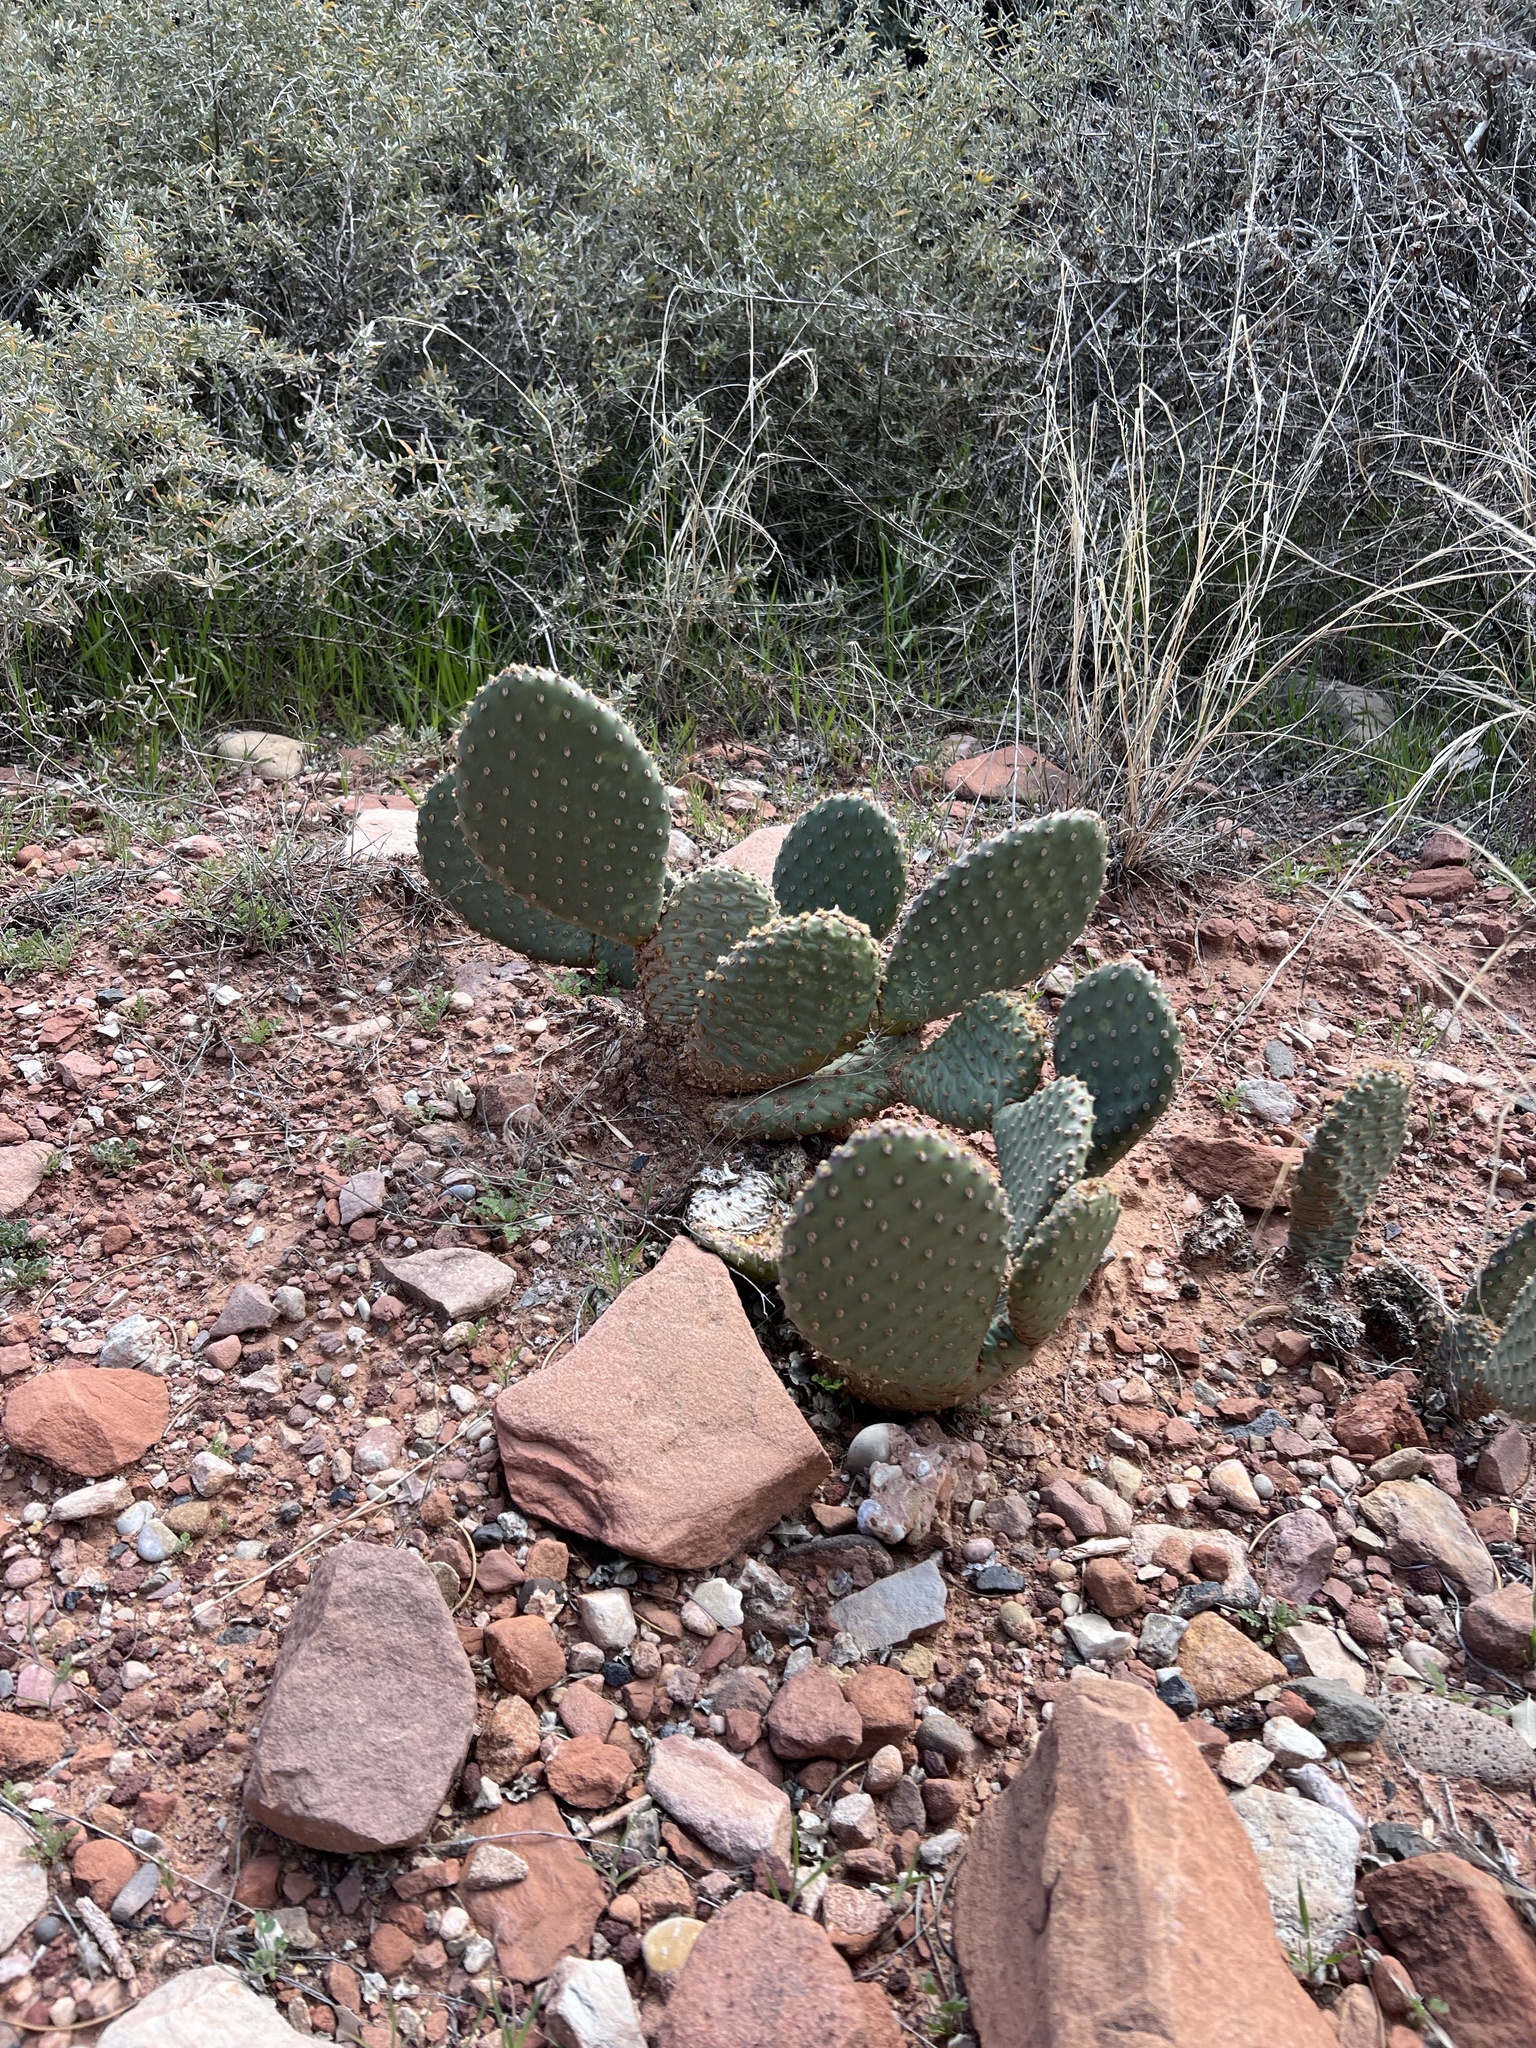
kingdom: Plantae
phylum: Tracheophyta
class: Magnoliopsida
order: Caryophyllales
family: Cactaceae
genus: Opuntia
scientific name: Opuntia aurea
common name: Golden prickly-pear
